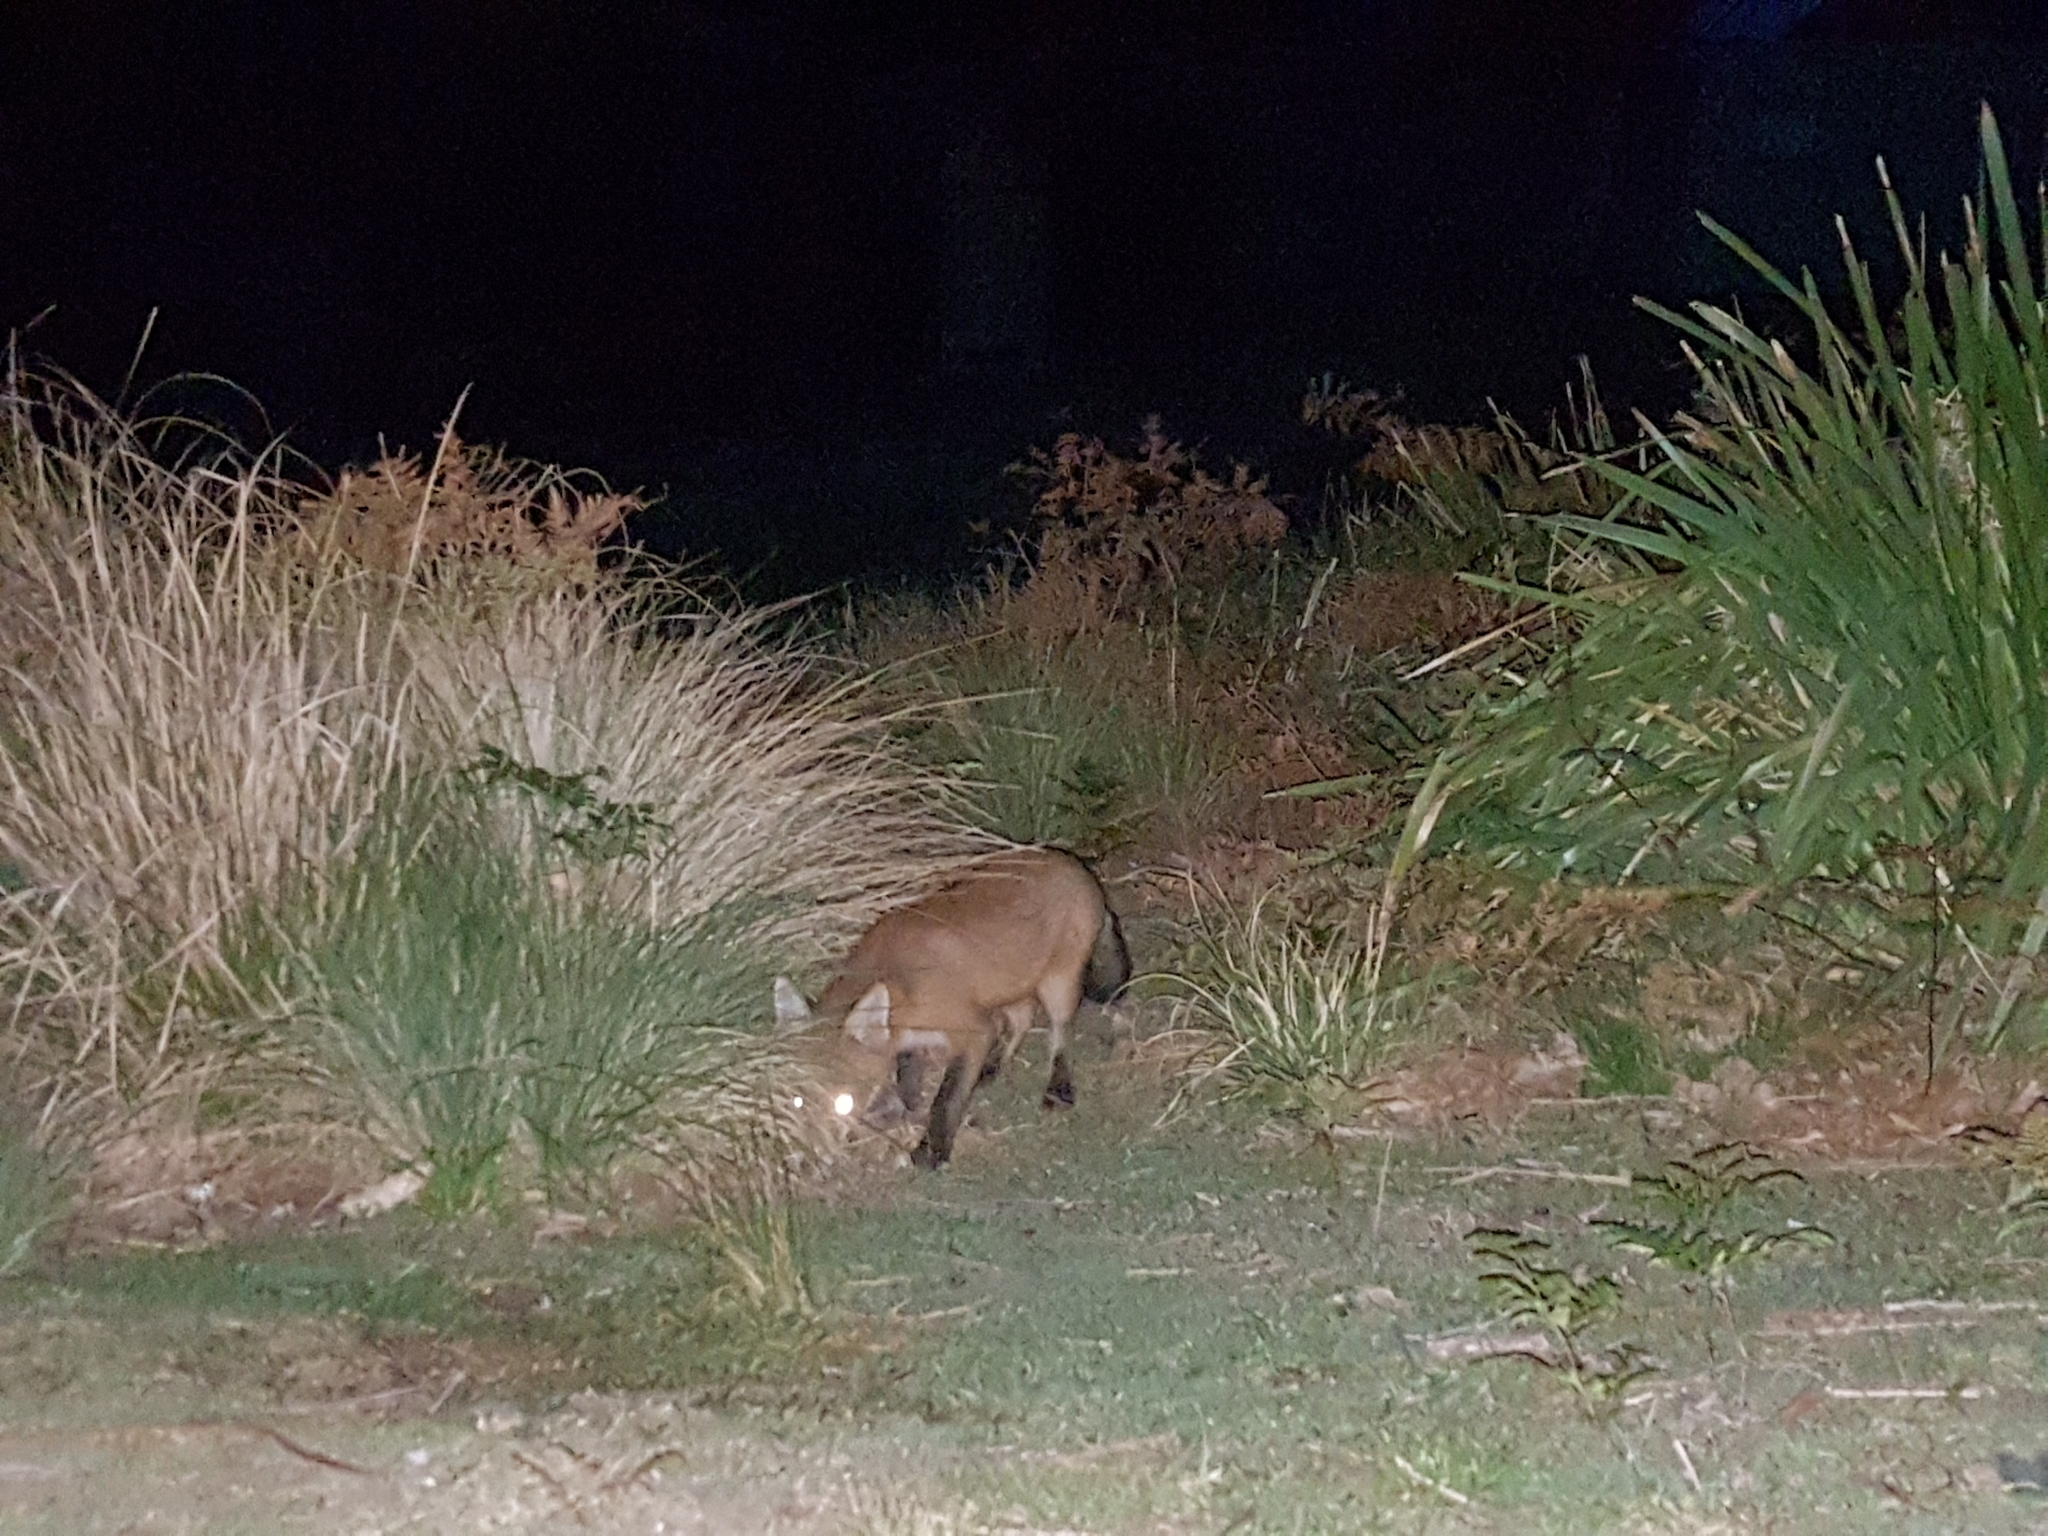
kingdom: Animalia
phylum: Chordata
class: Mammalia
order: Carnivora
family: Canidae
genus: Vulpes
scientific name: Vulpes vulpes
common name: Red fox
